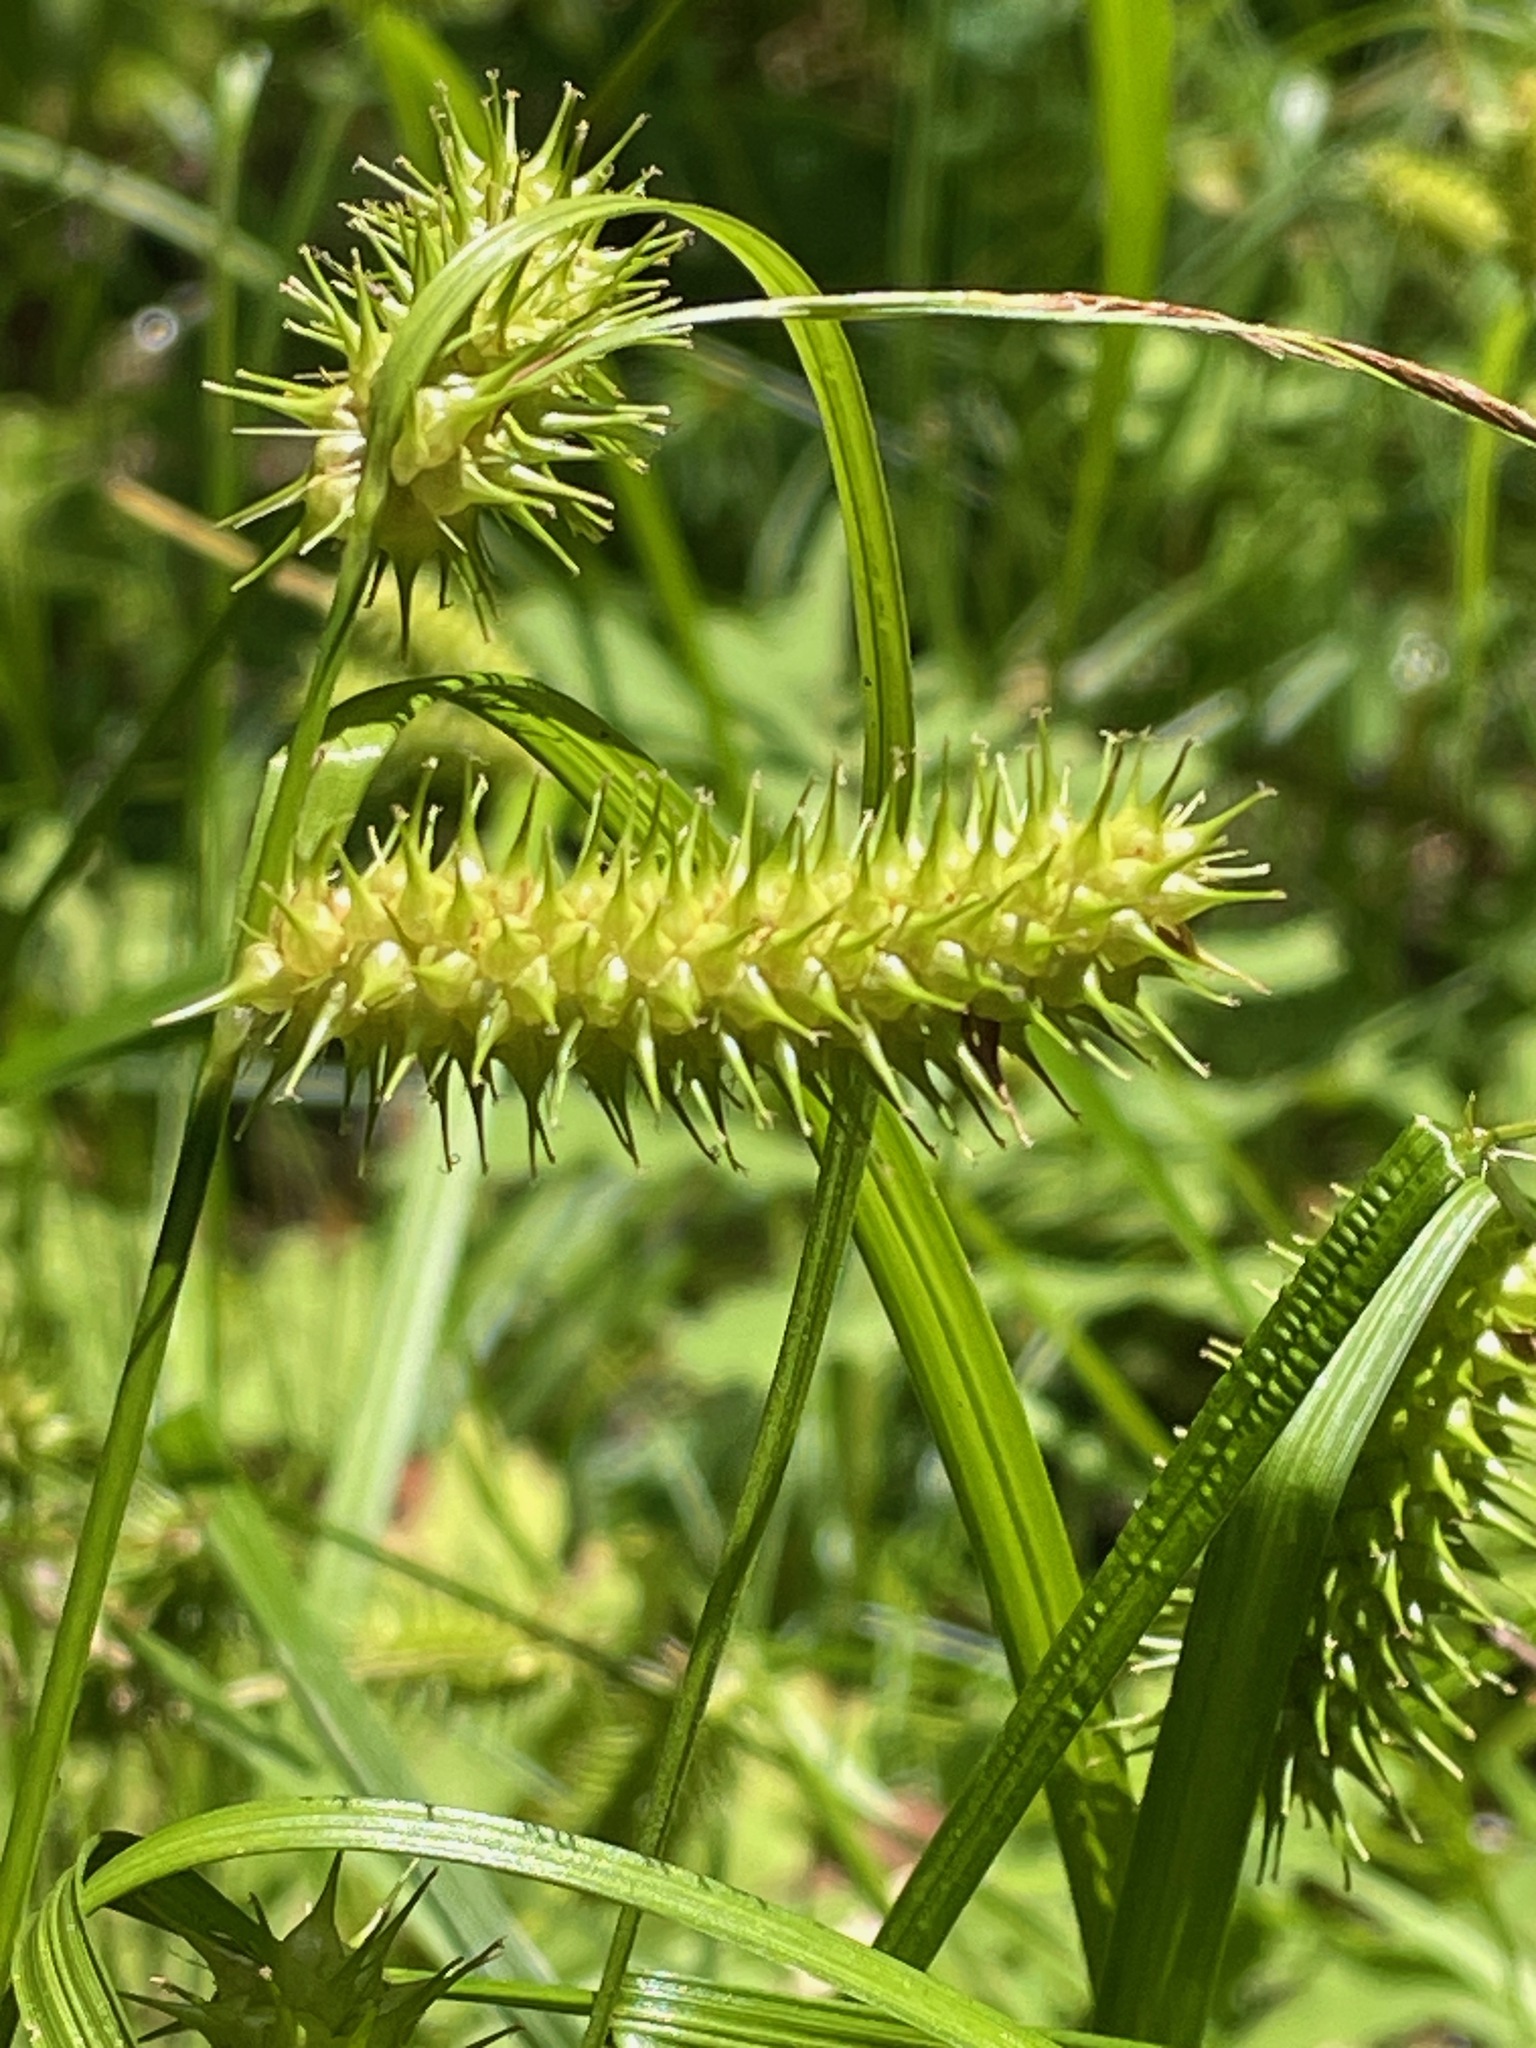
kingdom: Plantae
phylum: Tracheophyta
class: Liliopsida
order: Poales
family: Cyperaceae
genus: Carex
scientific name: Carex lurida
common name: Sallow sedge
